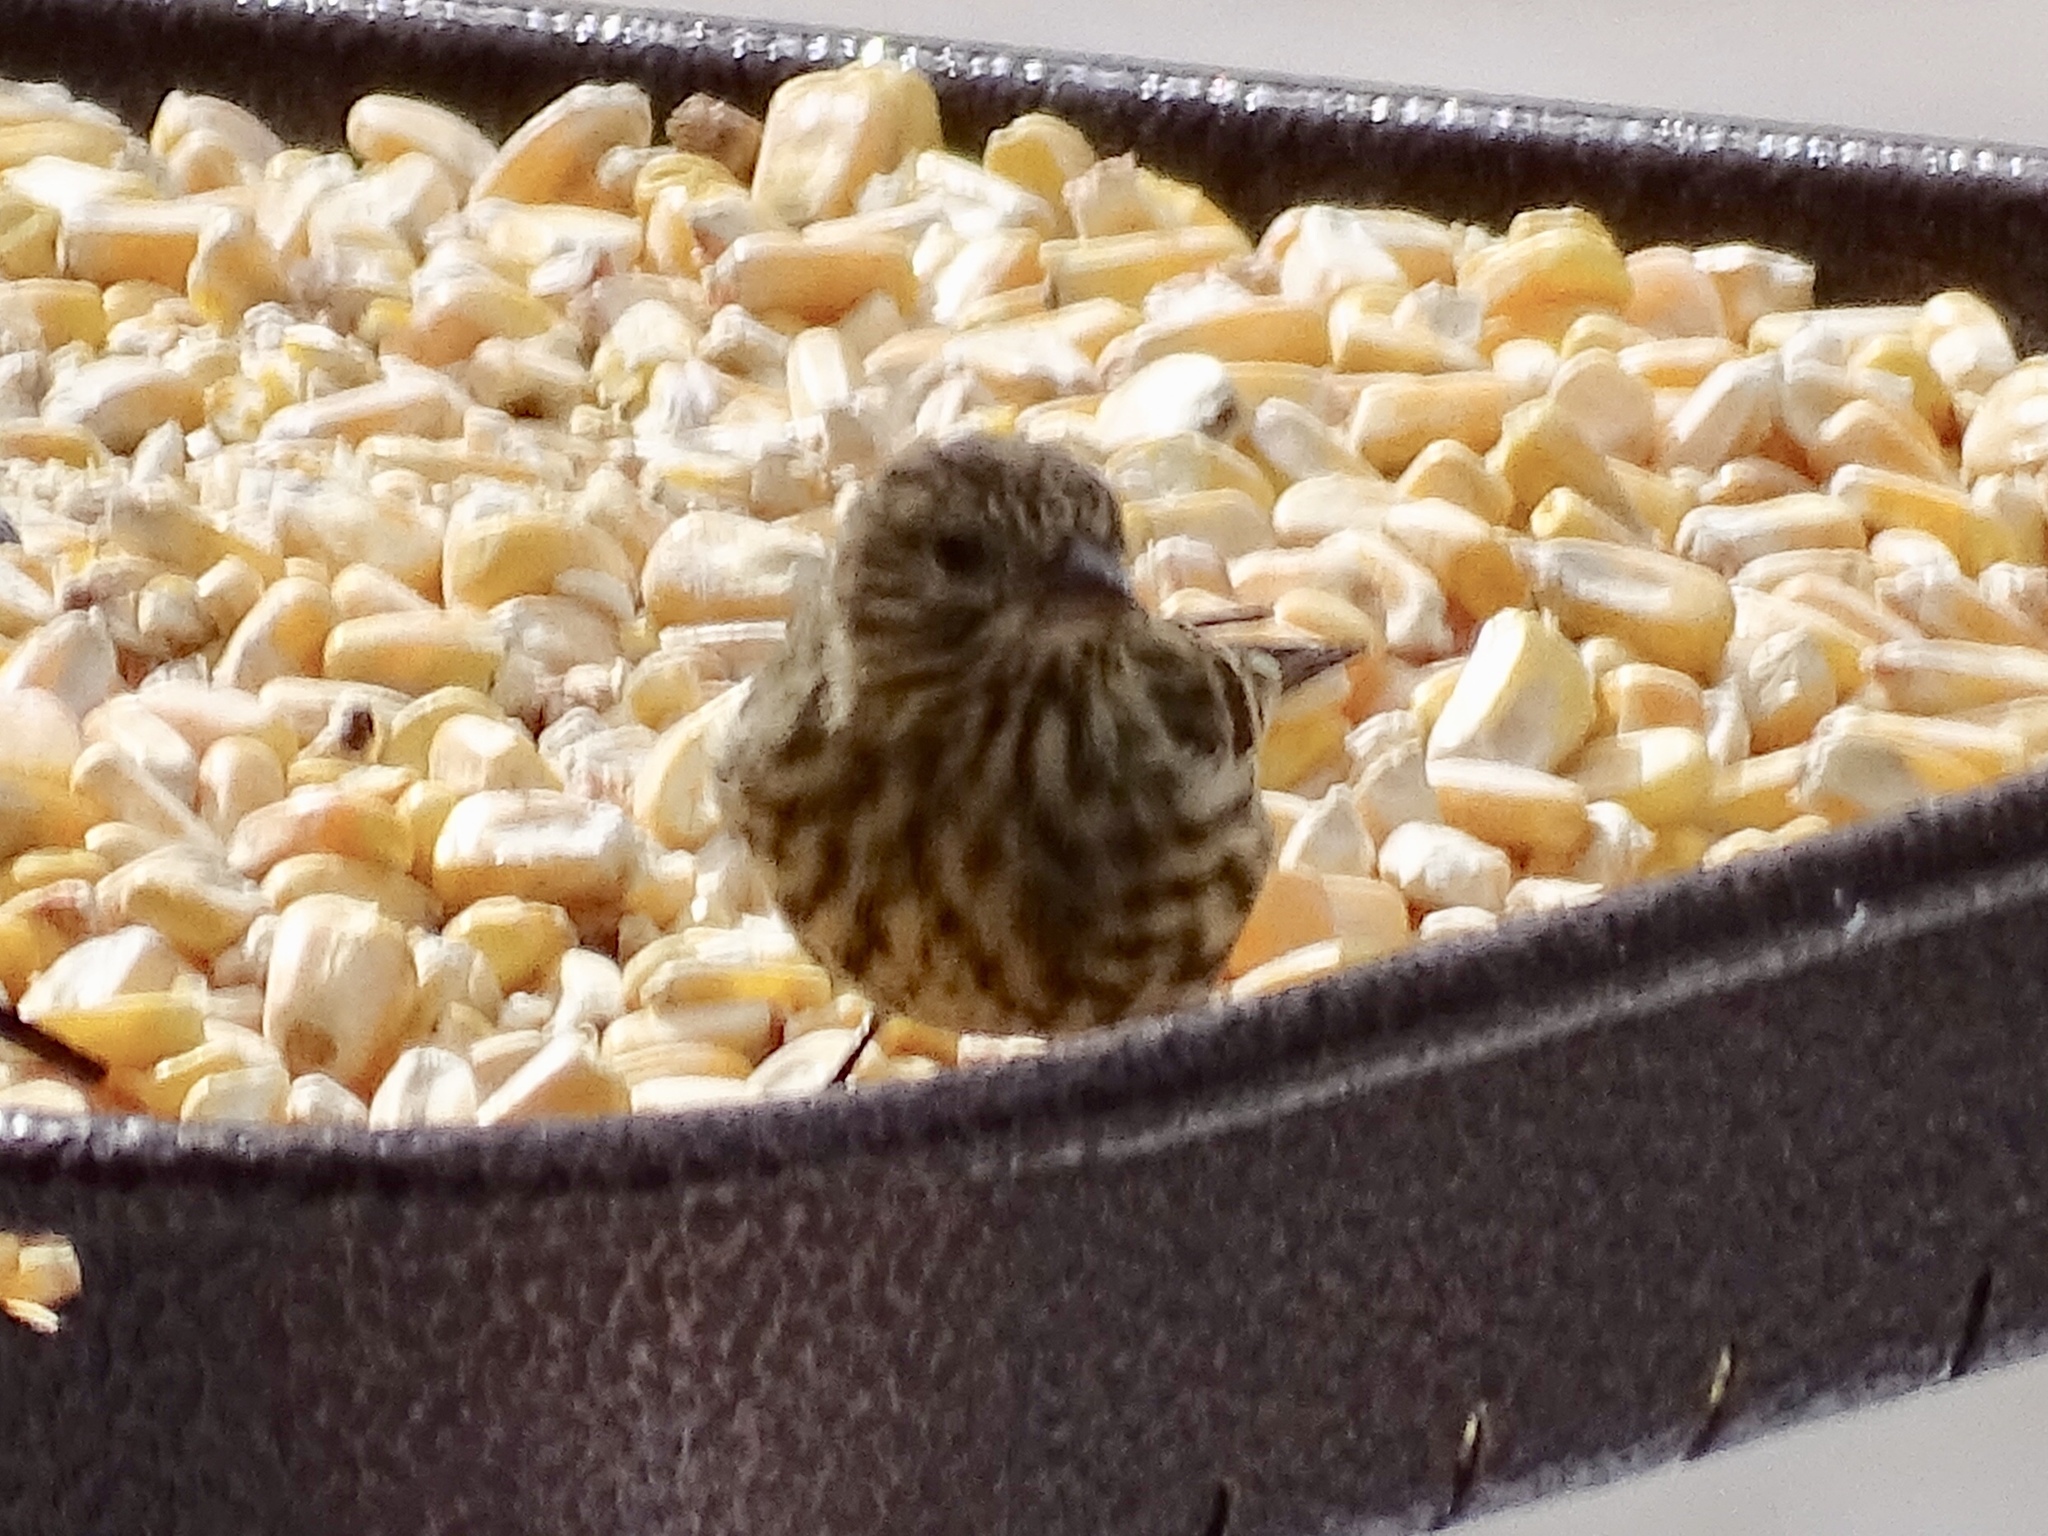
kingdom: Animalia
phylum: Chordata
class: Aves
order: Passeriformes
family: Fringillidae
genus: Spinus
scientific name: Spinus pinus
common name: Pine siskin
